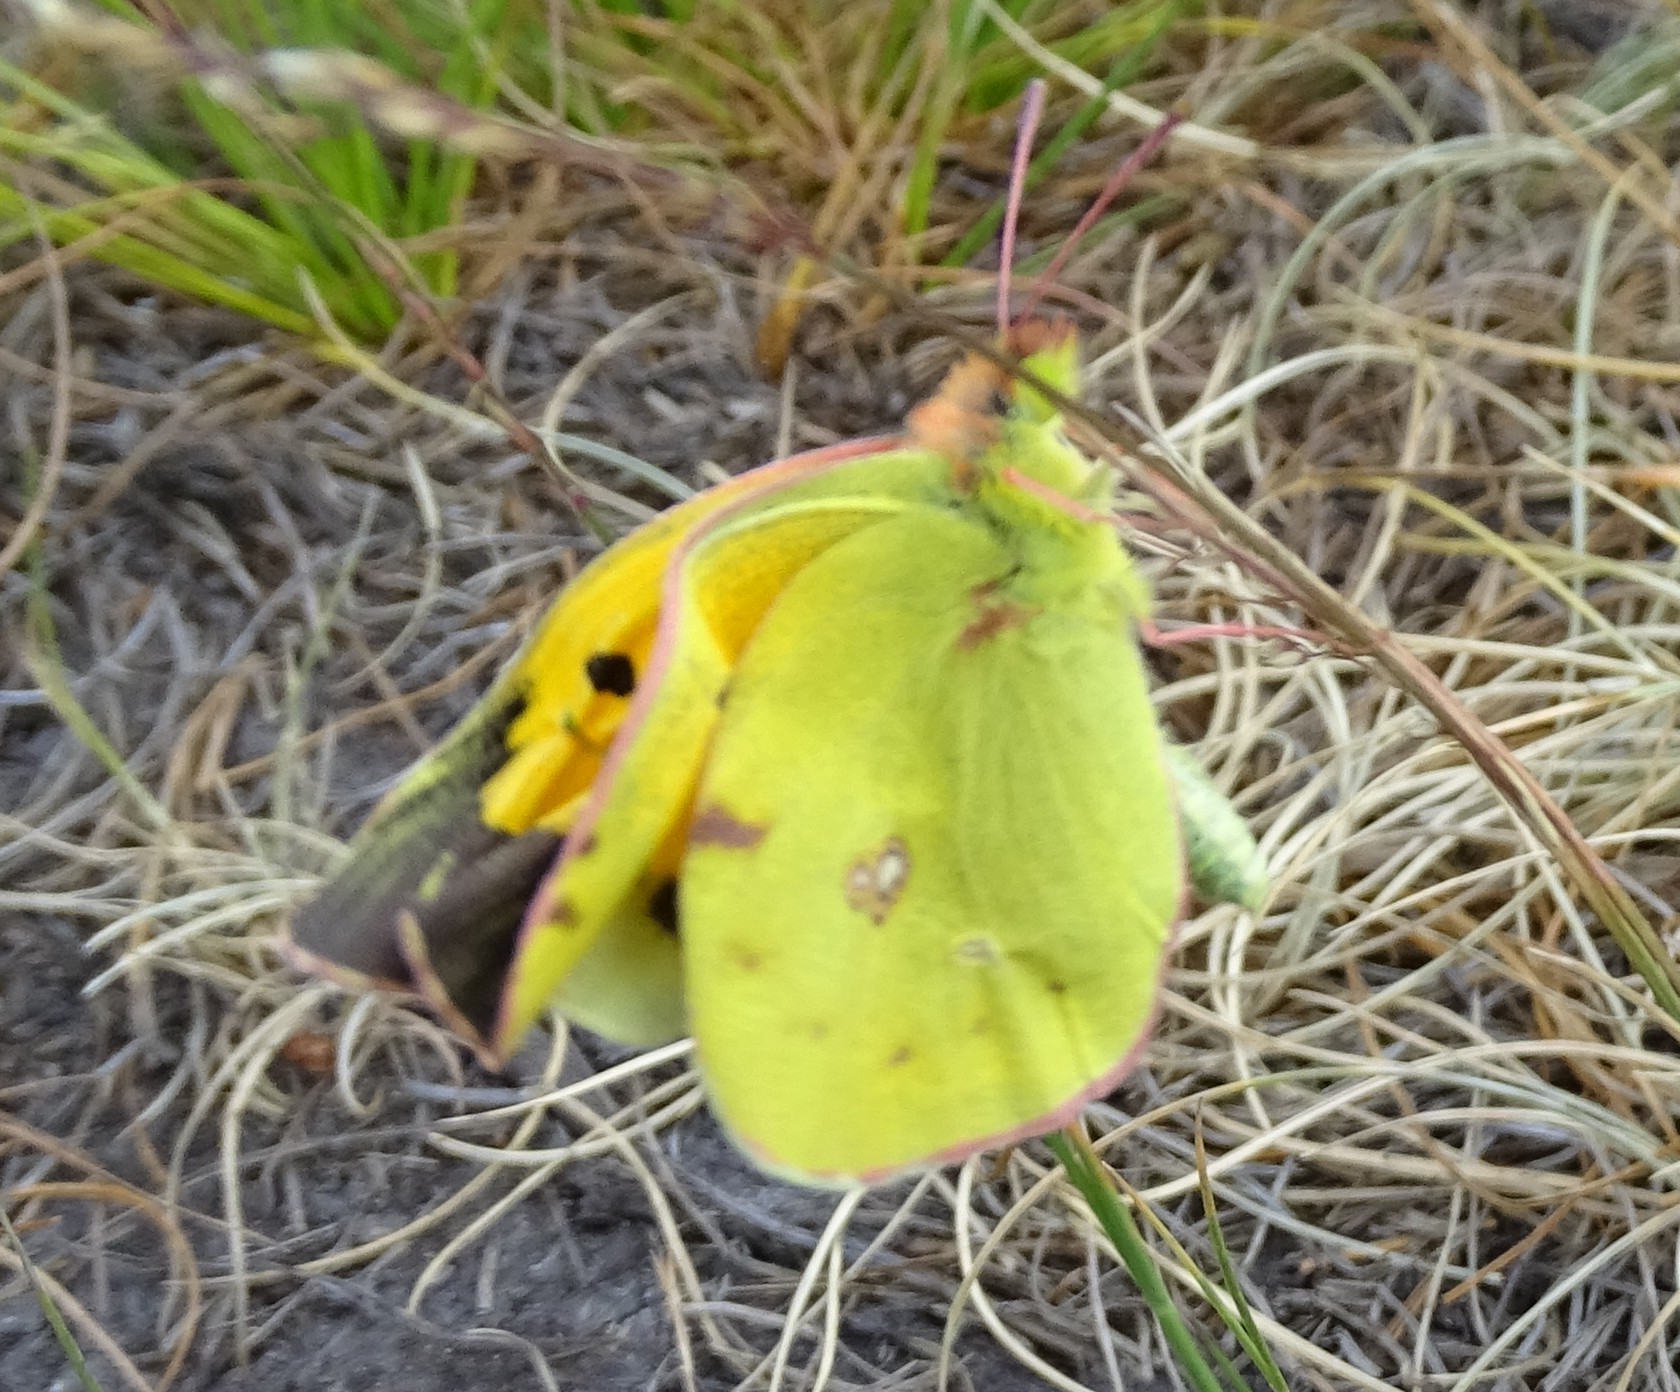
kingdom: Animalia
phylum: Arthropoda
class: Insecta
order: Lepidoptera
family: Pieridae
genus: Colias
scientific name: Colias croceus
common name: Clouded yellow
